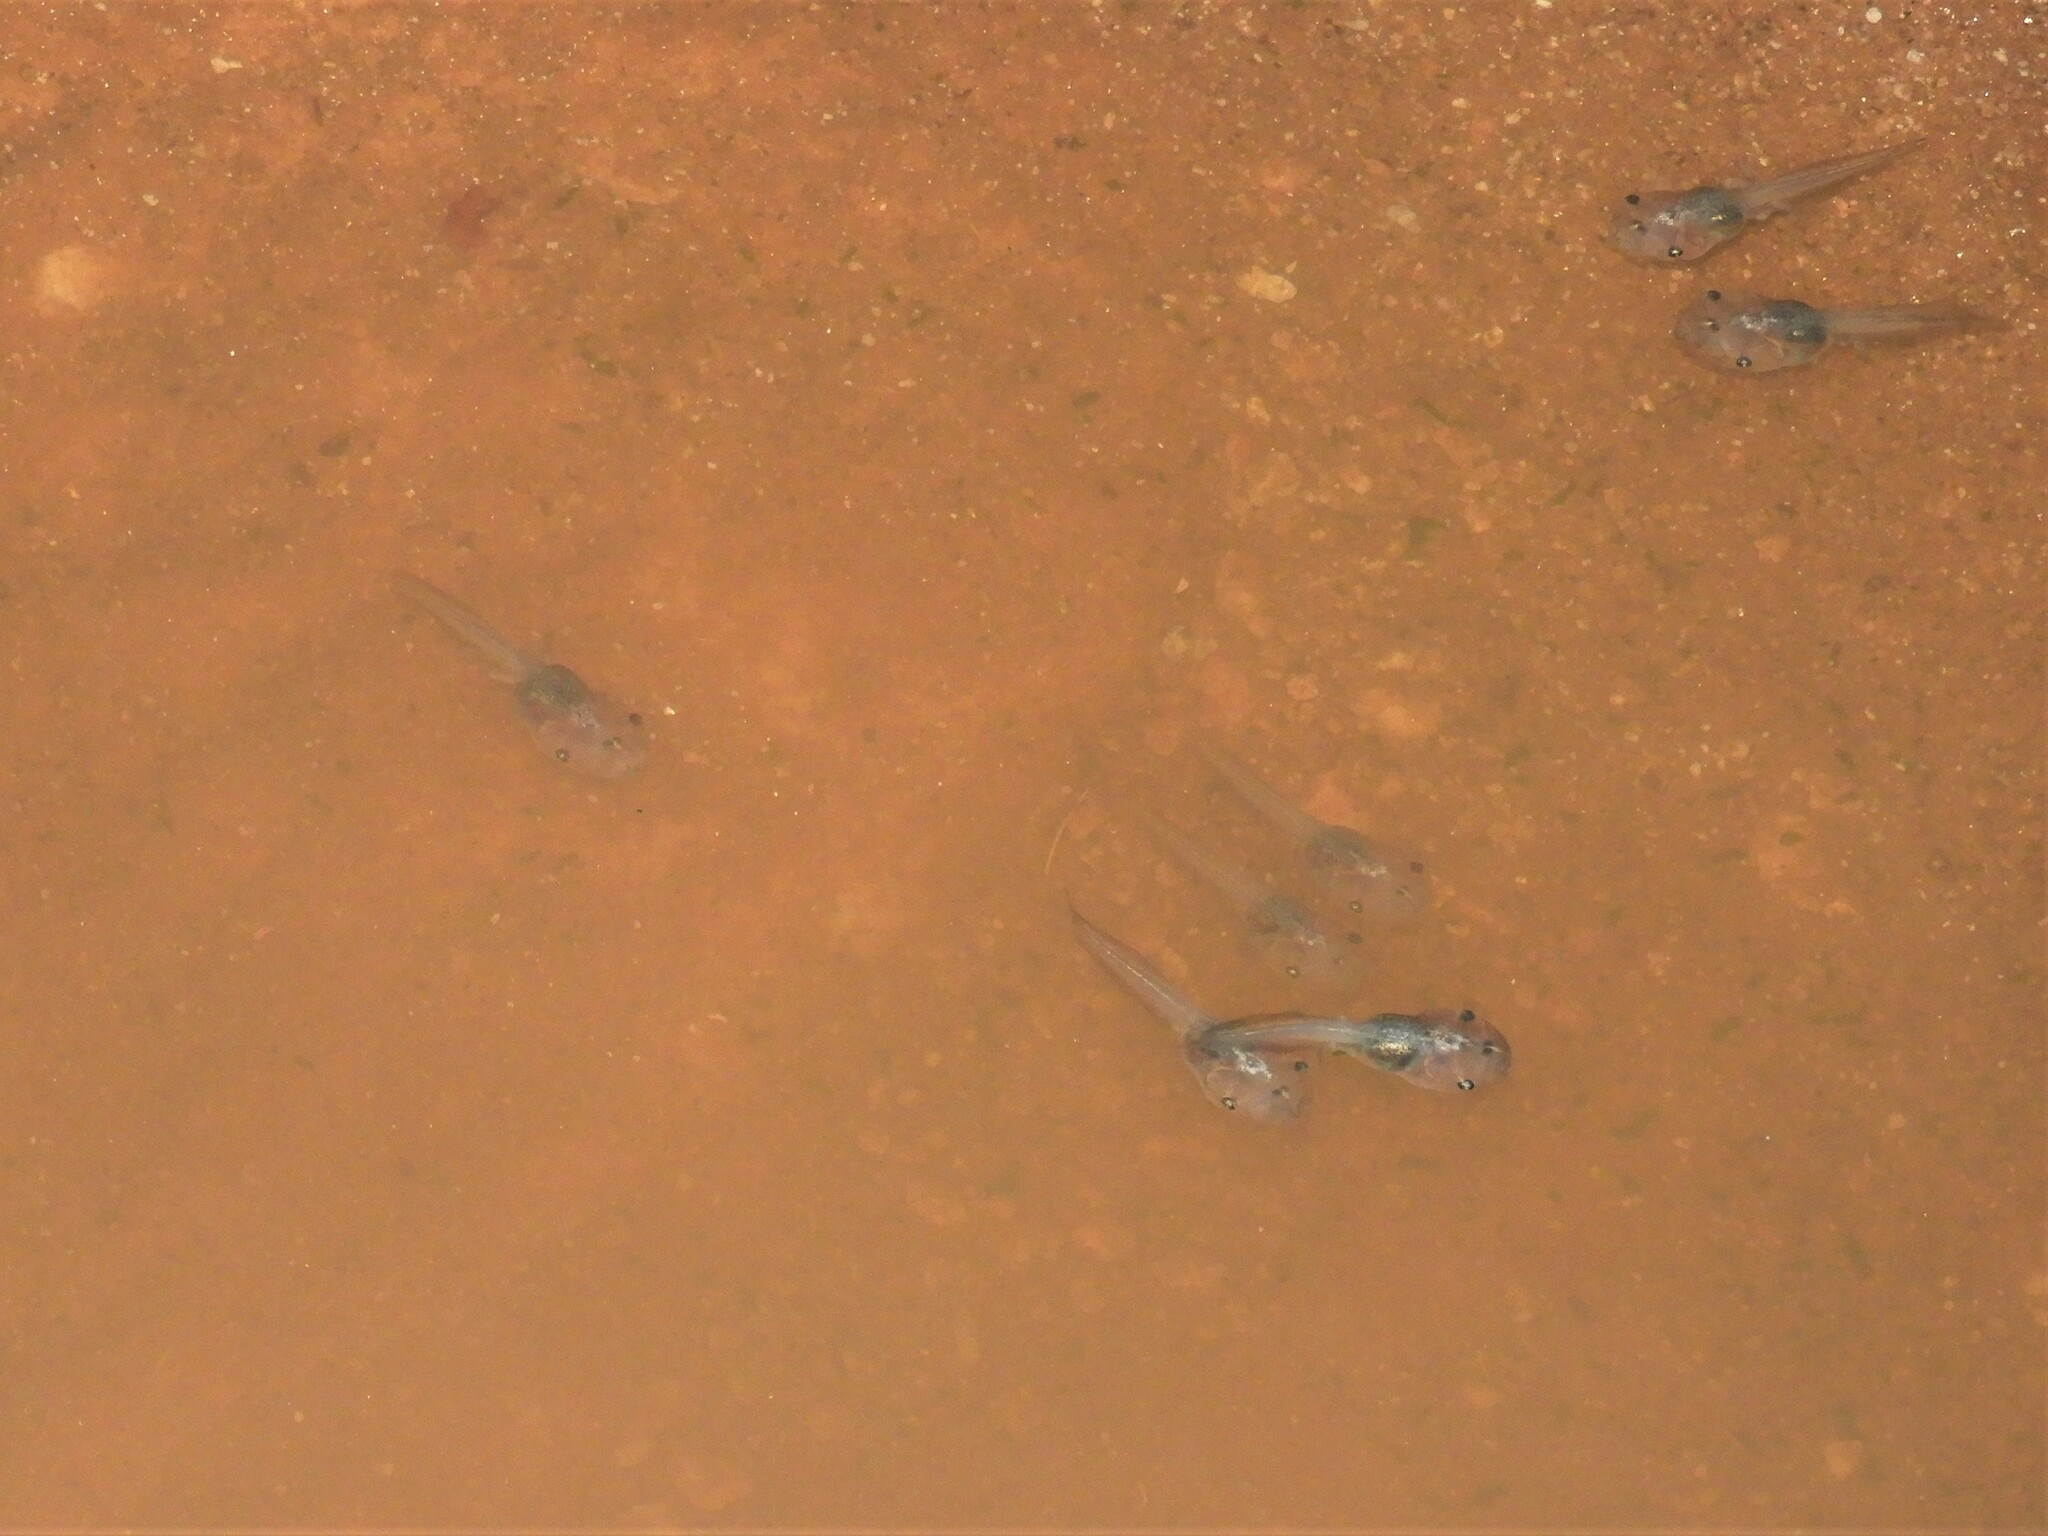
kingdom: Animalia
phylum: Chordata
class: Amphibia
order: Anura
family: Microhylidae
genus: Phrynomantis
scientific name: Phrynomantis annectens
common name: Marbled rubber frog
